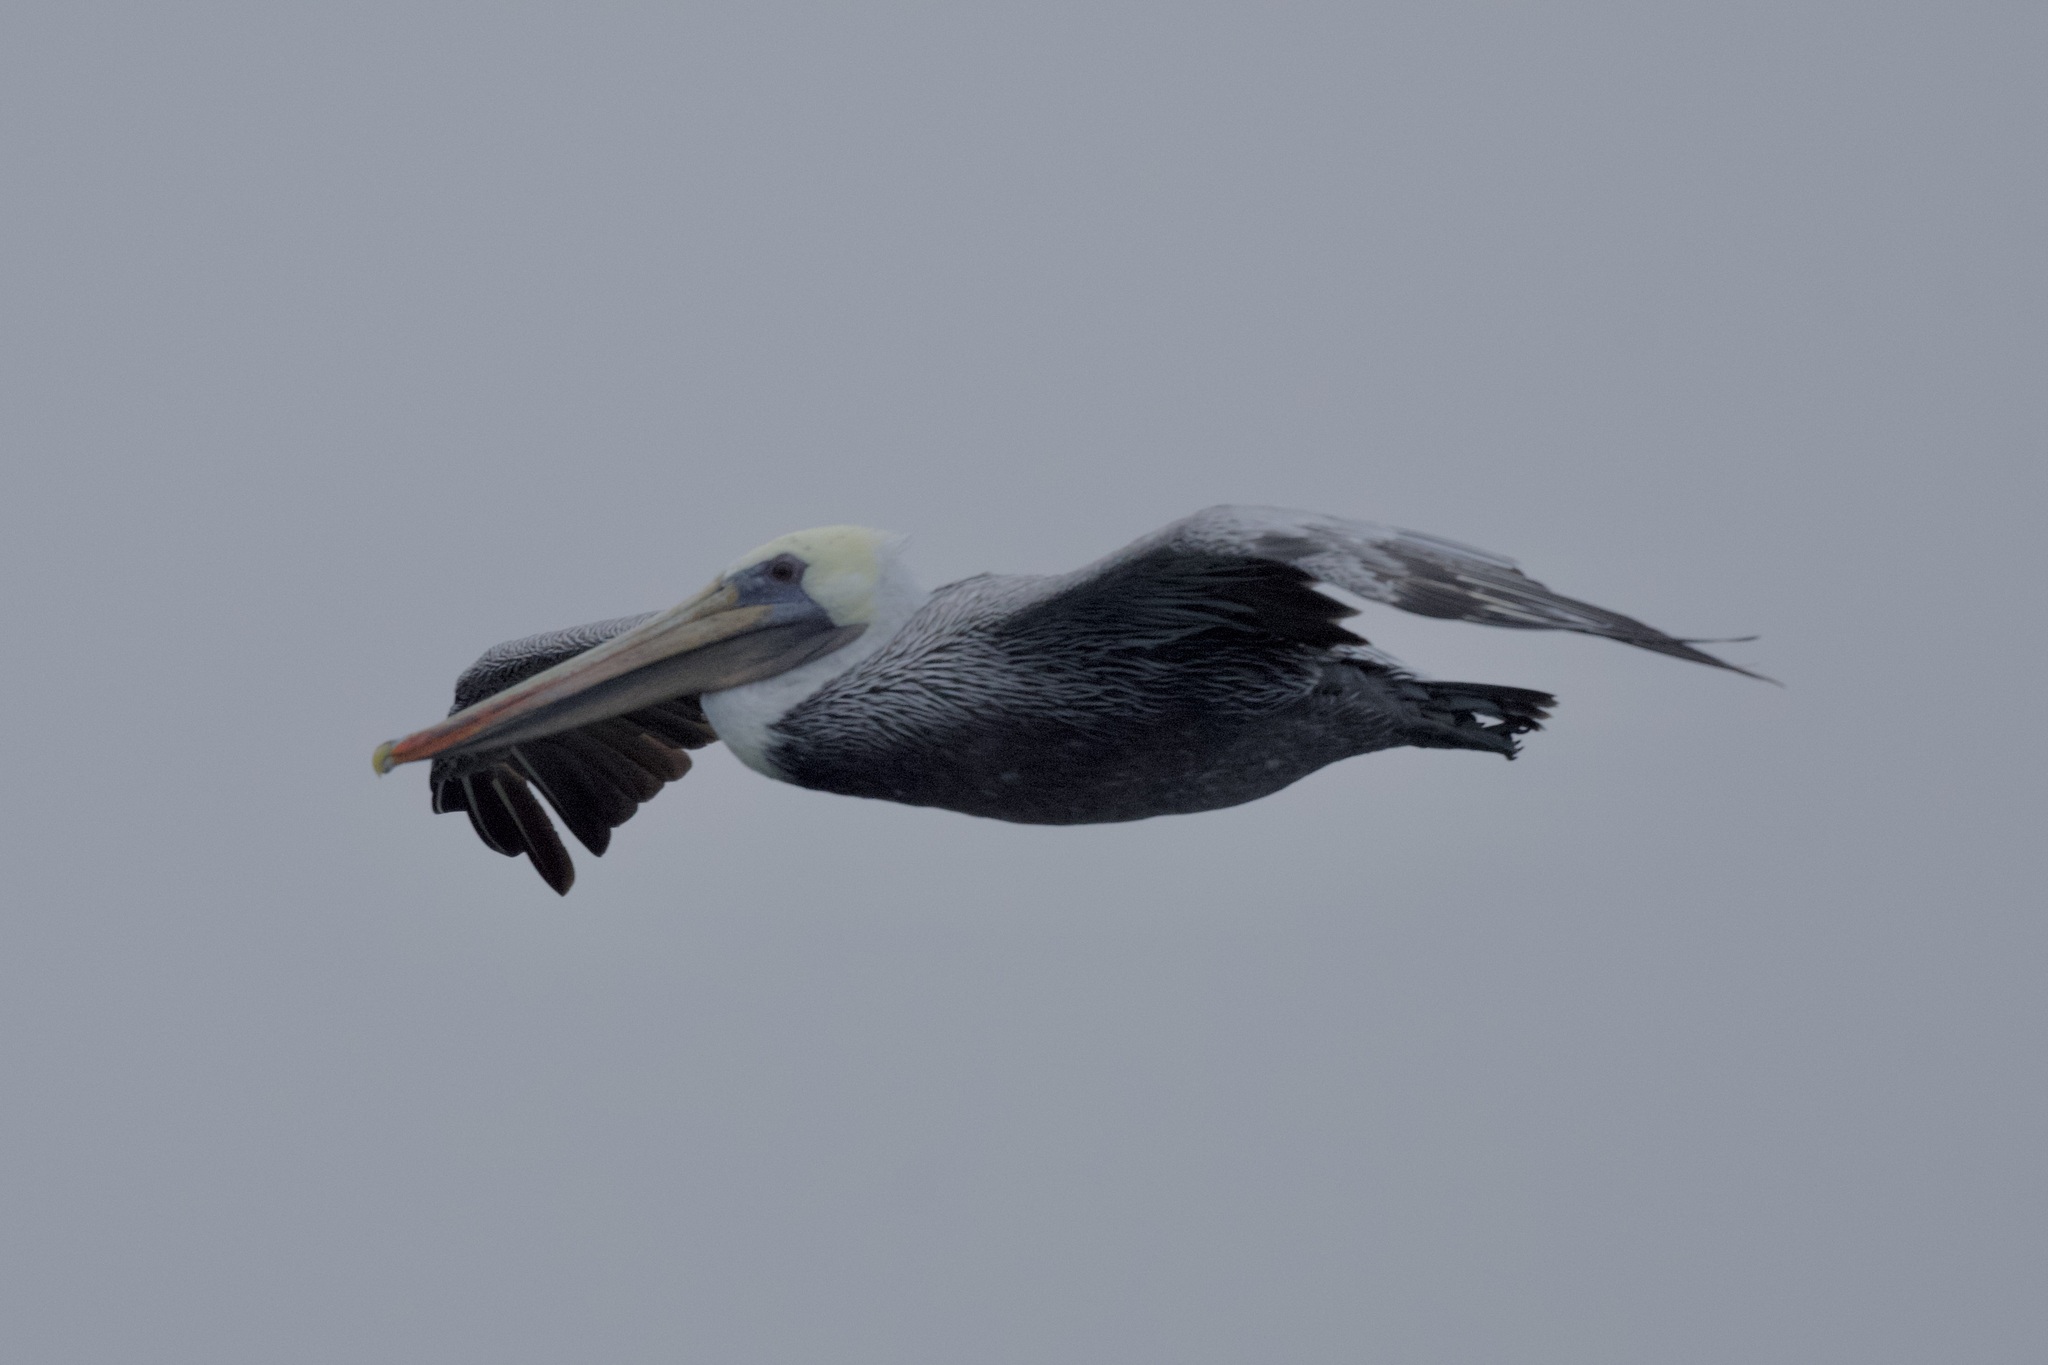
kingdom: Animalia
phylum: Chordata
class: Aves
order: Pelecaniformes
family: Pelecanidae
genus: Pelecanus
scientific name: Pelecanus occidentalis
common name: Brown pelican
